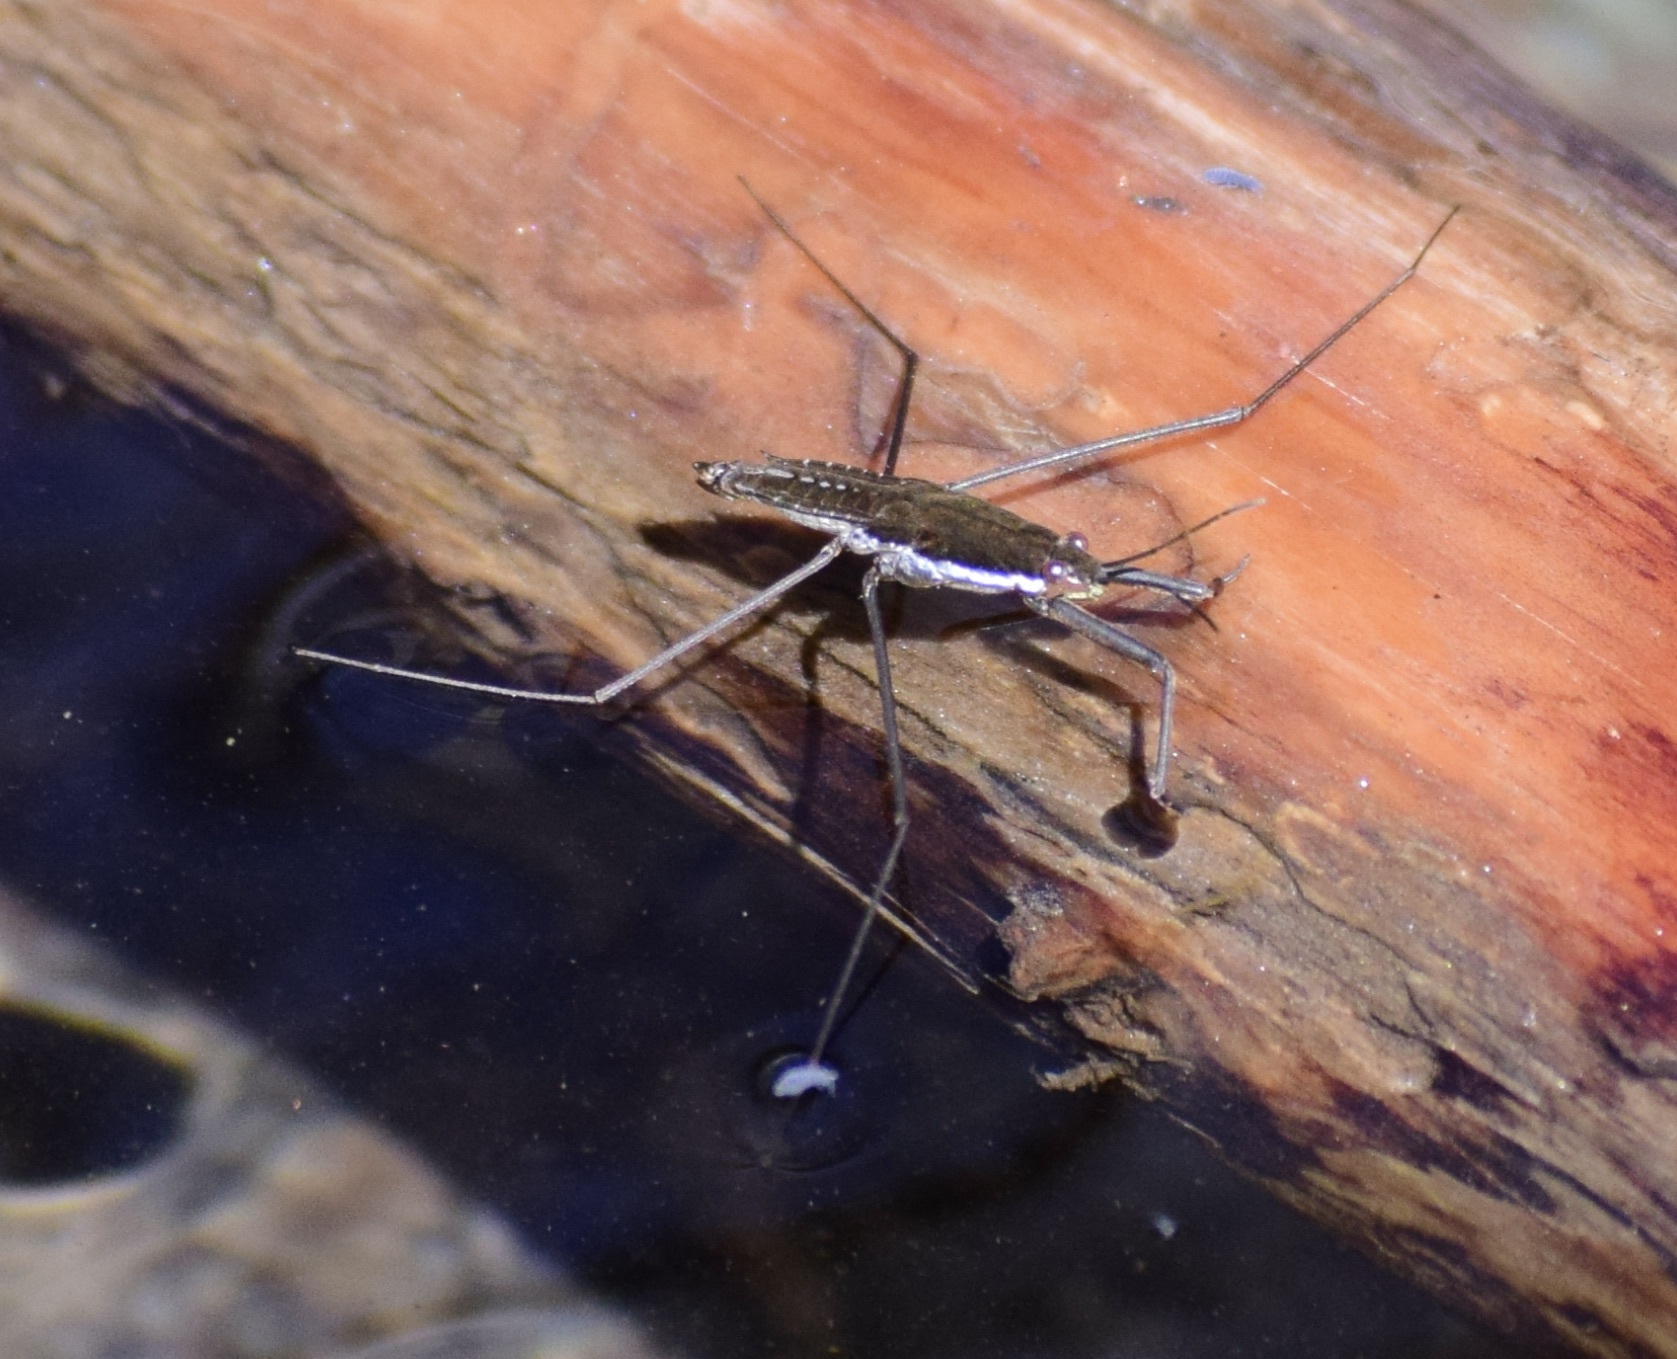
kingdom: Animalia
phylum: Arthropoda
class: Insecta
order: Hemiptera
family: Gerridae
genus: Aquarius
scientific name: Aquarius remigis
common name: Common water strider
